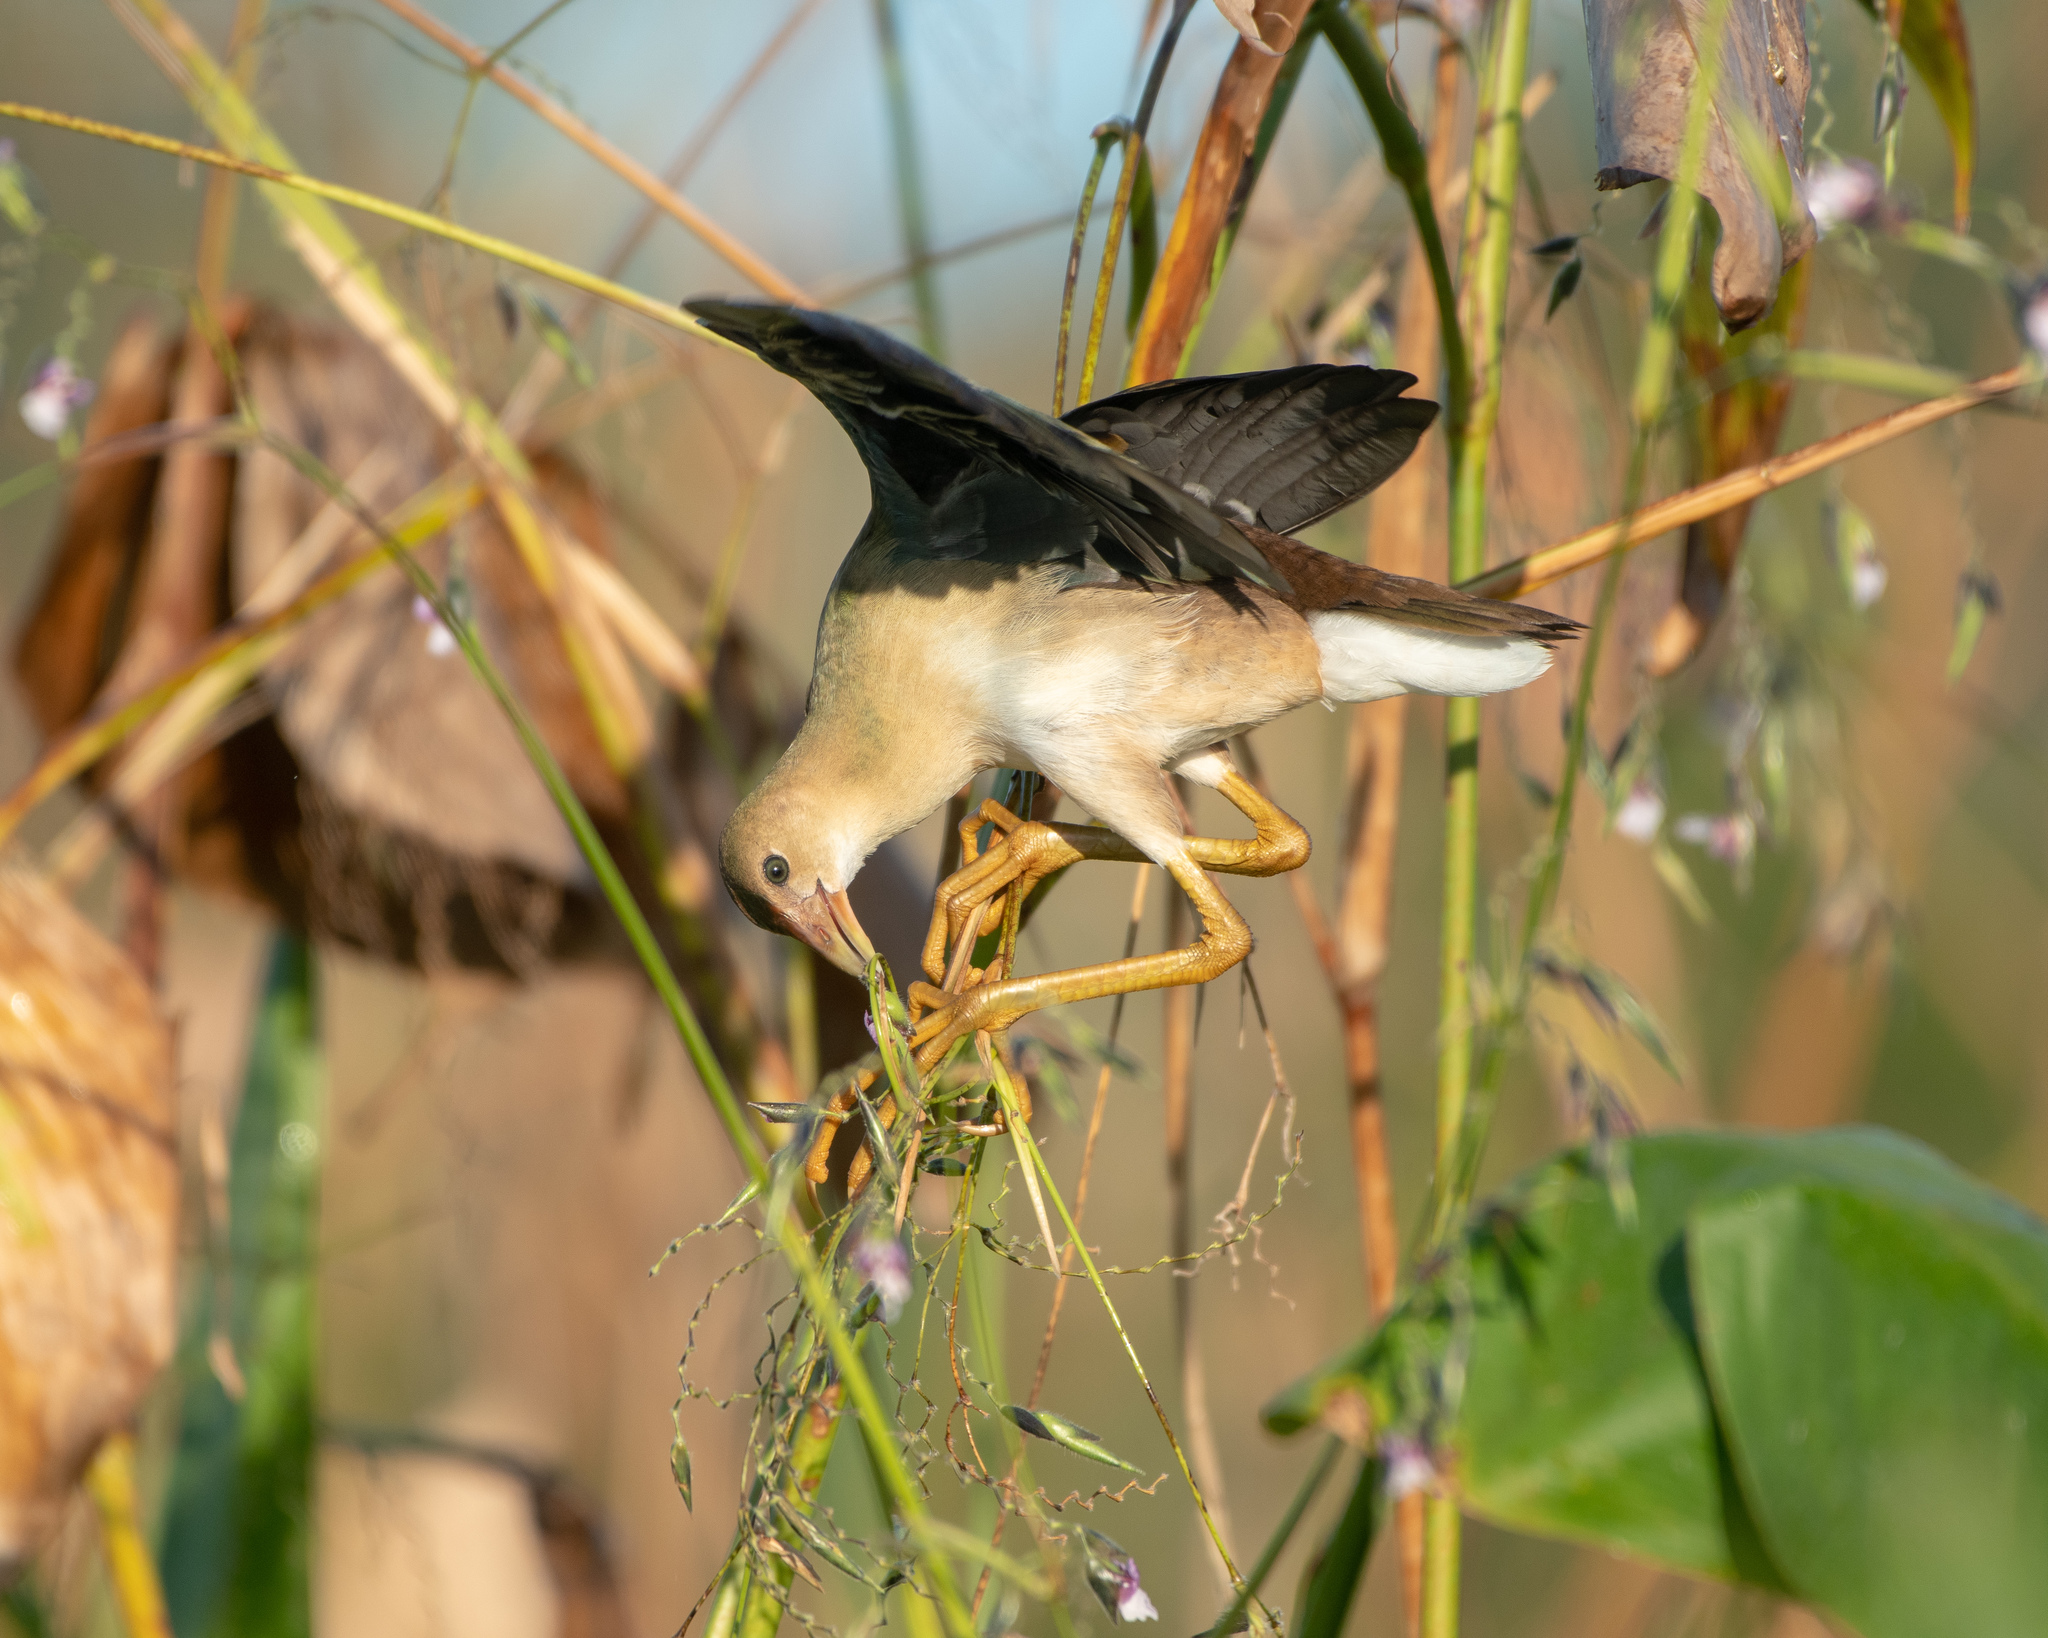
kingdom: Animalia
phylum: Chordata
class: Aves
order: Gruiformes
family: Rallidae
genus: Porphyrio
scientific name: Porphyrio martinica
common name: Purple gallinule
